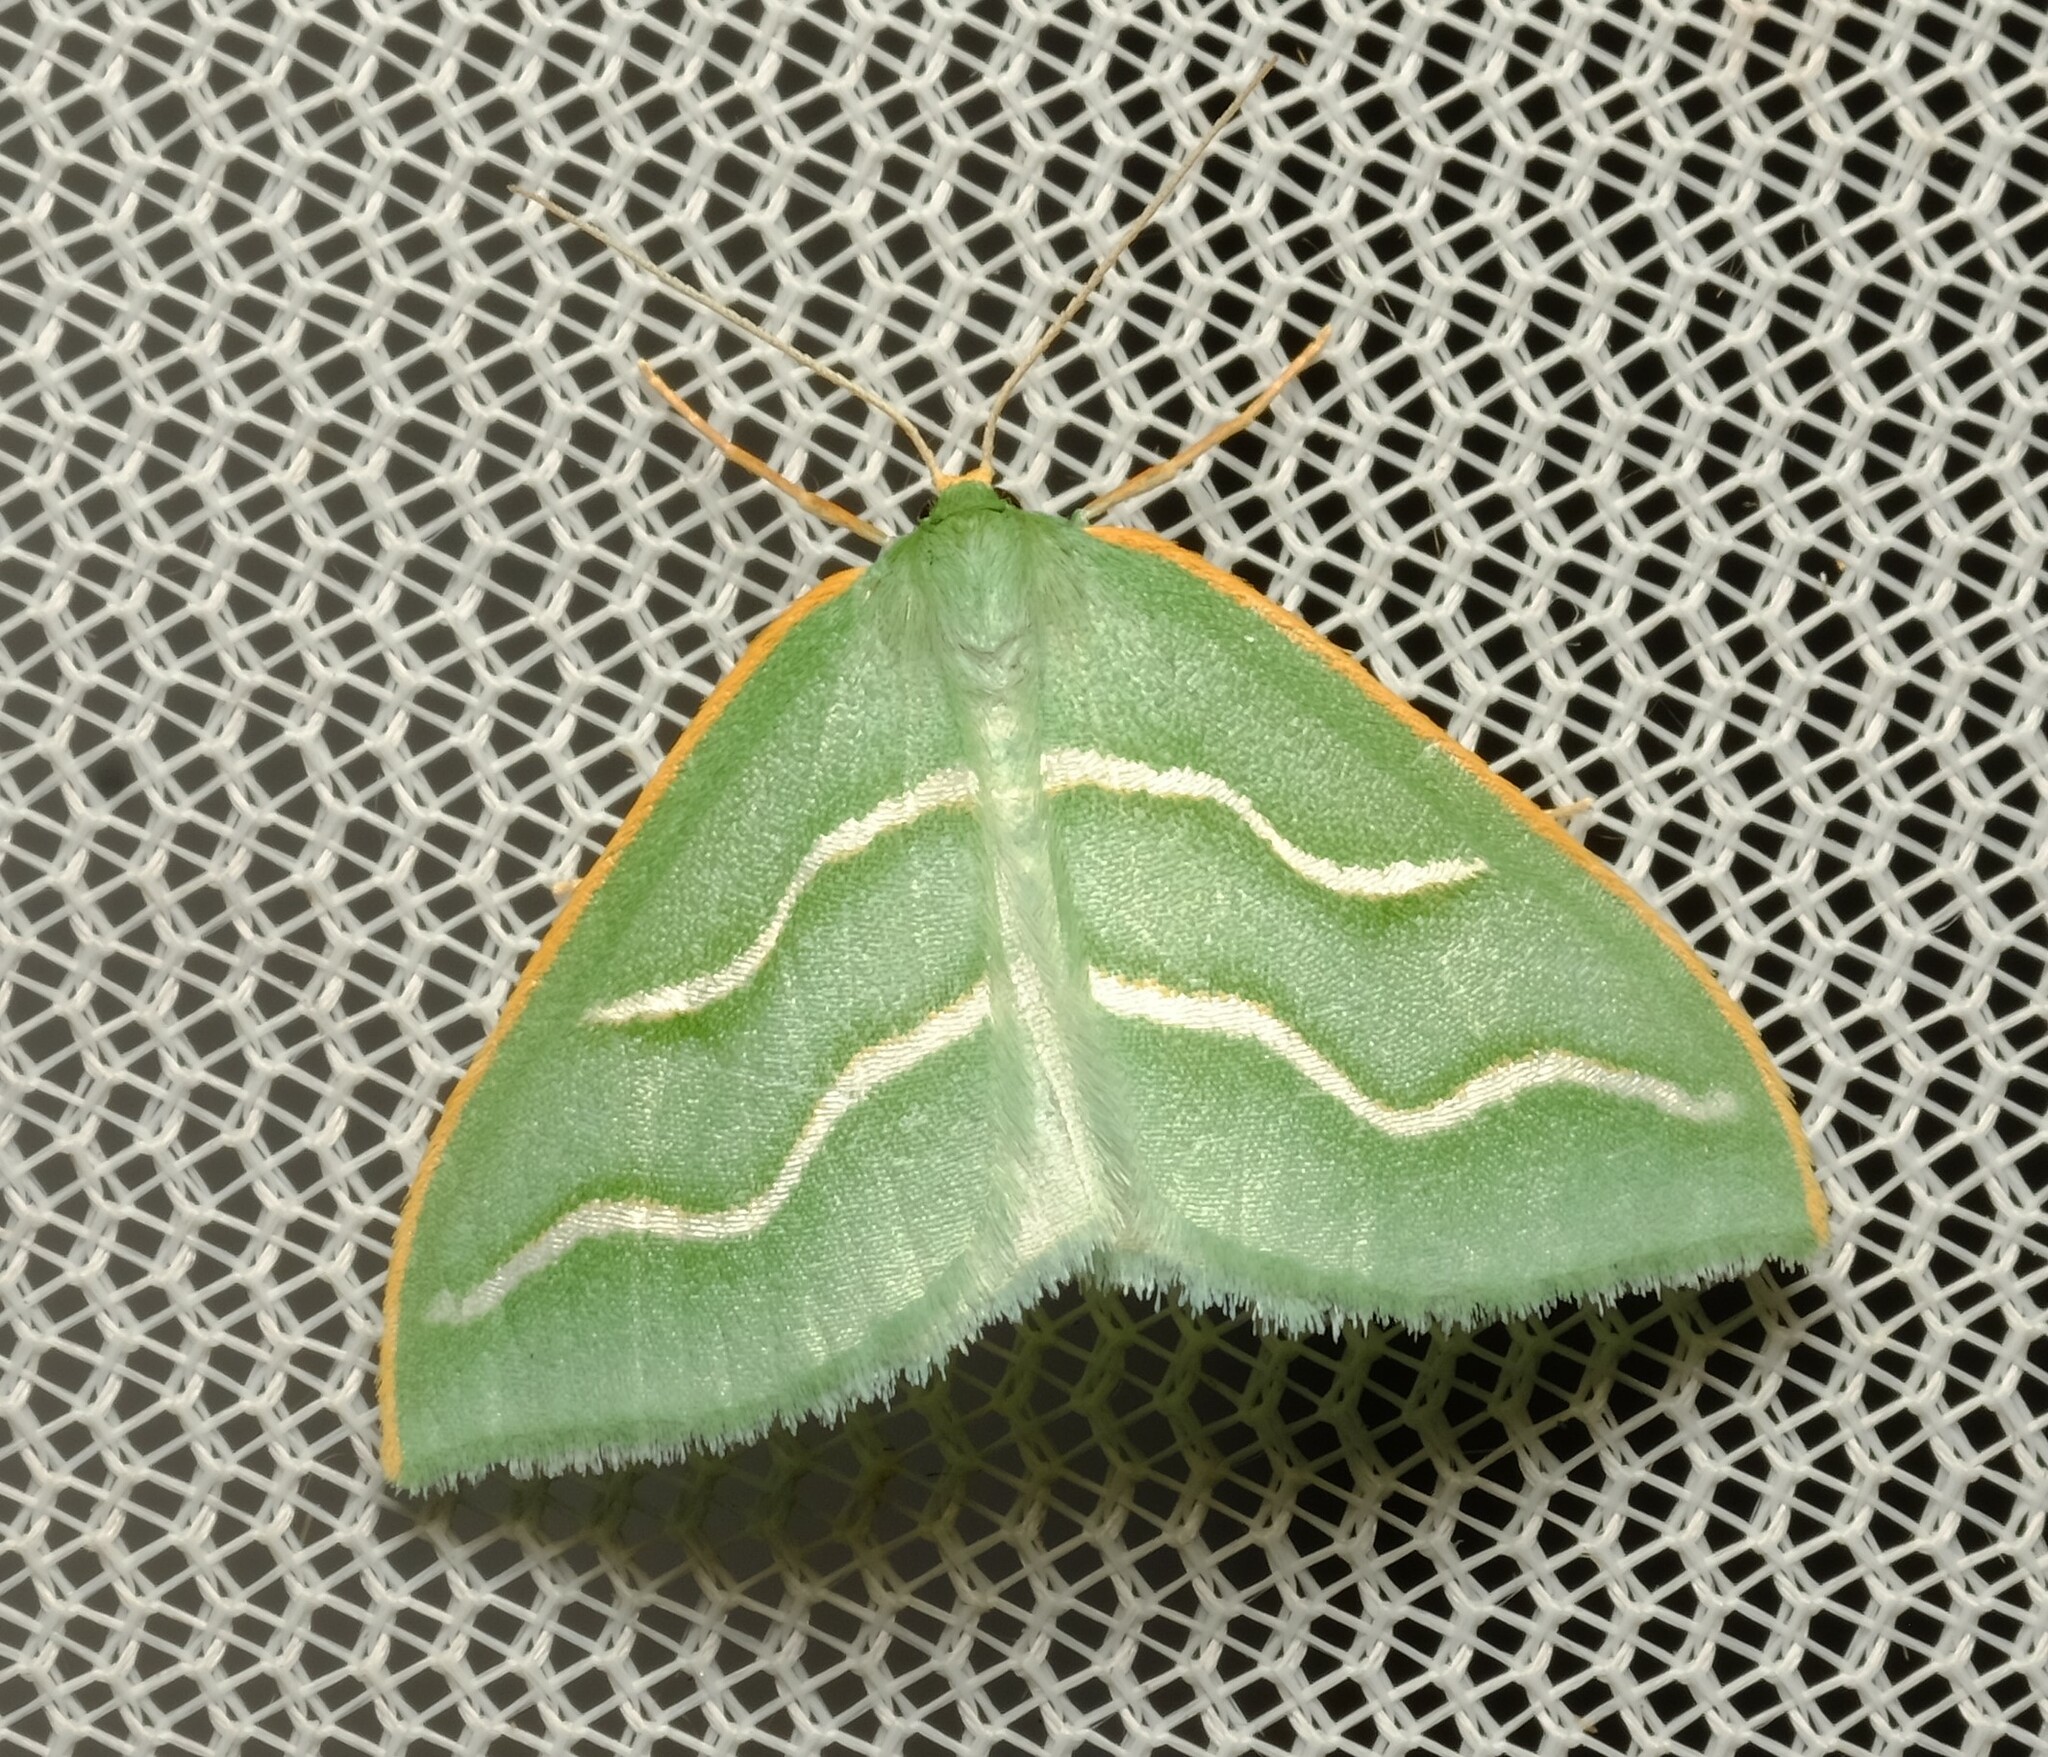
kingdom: Animalia
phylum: Arthropoda
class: Insecta
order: Lepidoptera
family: Geometridae
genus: Euloxia
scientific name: Euloxia meandraria
